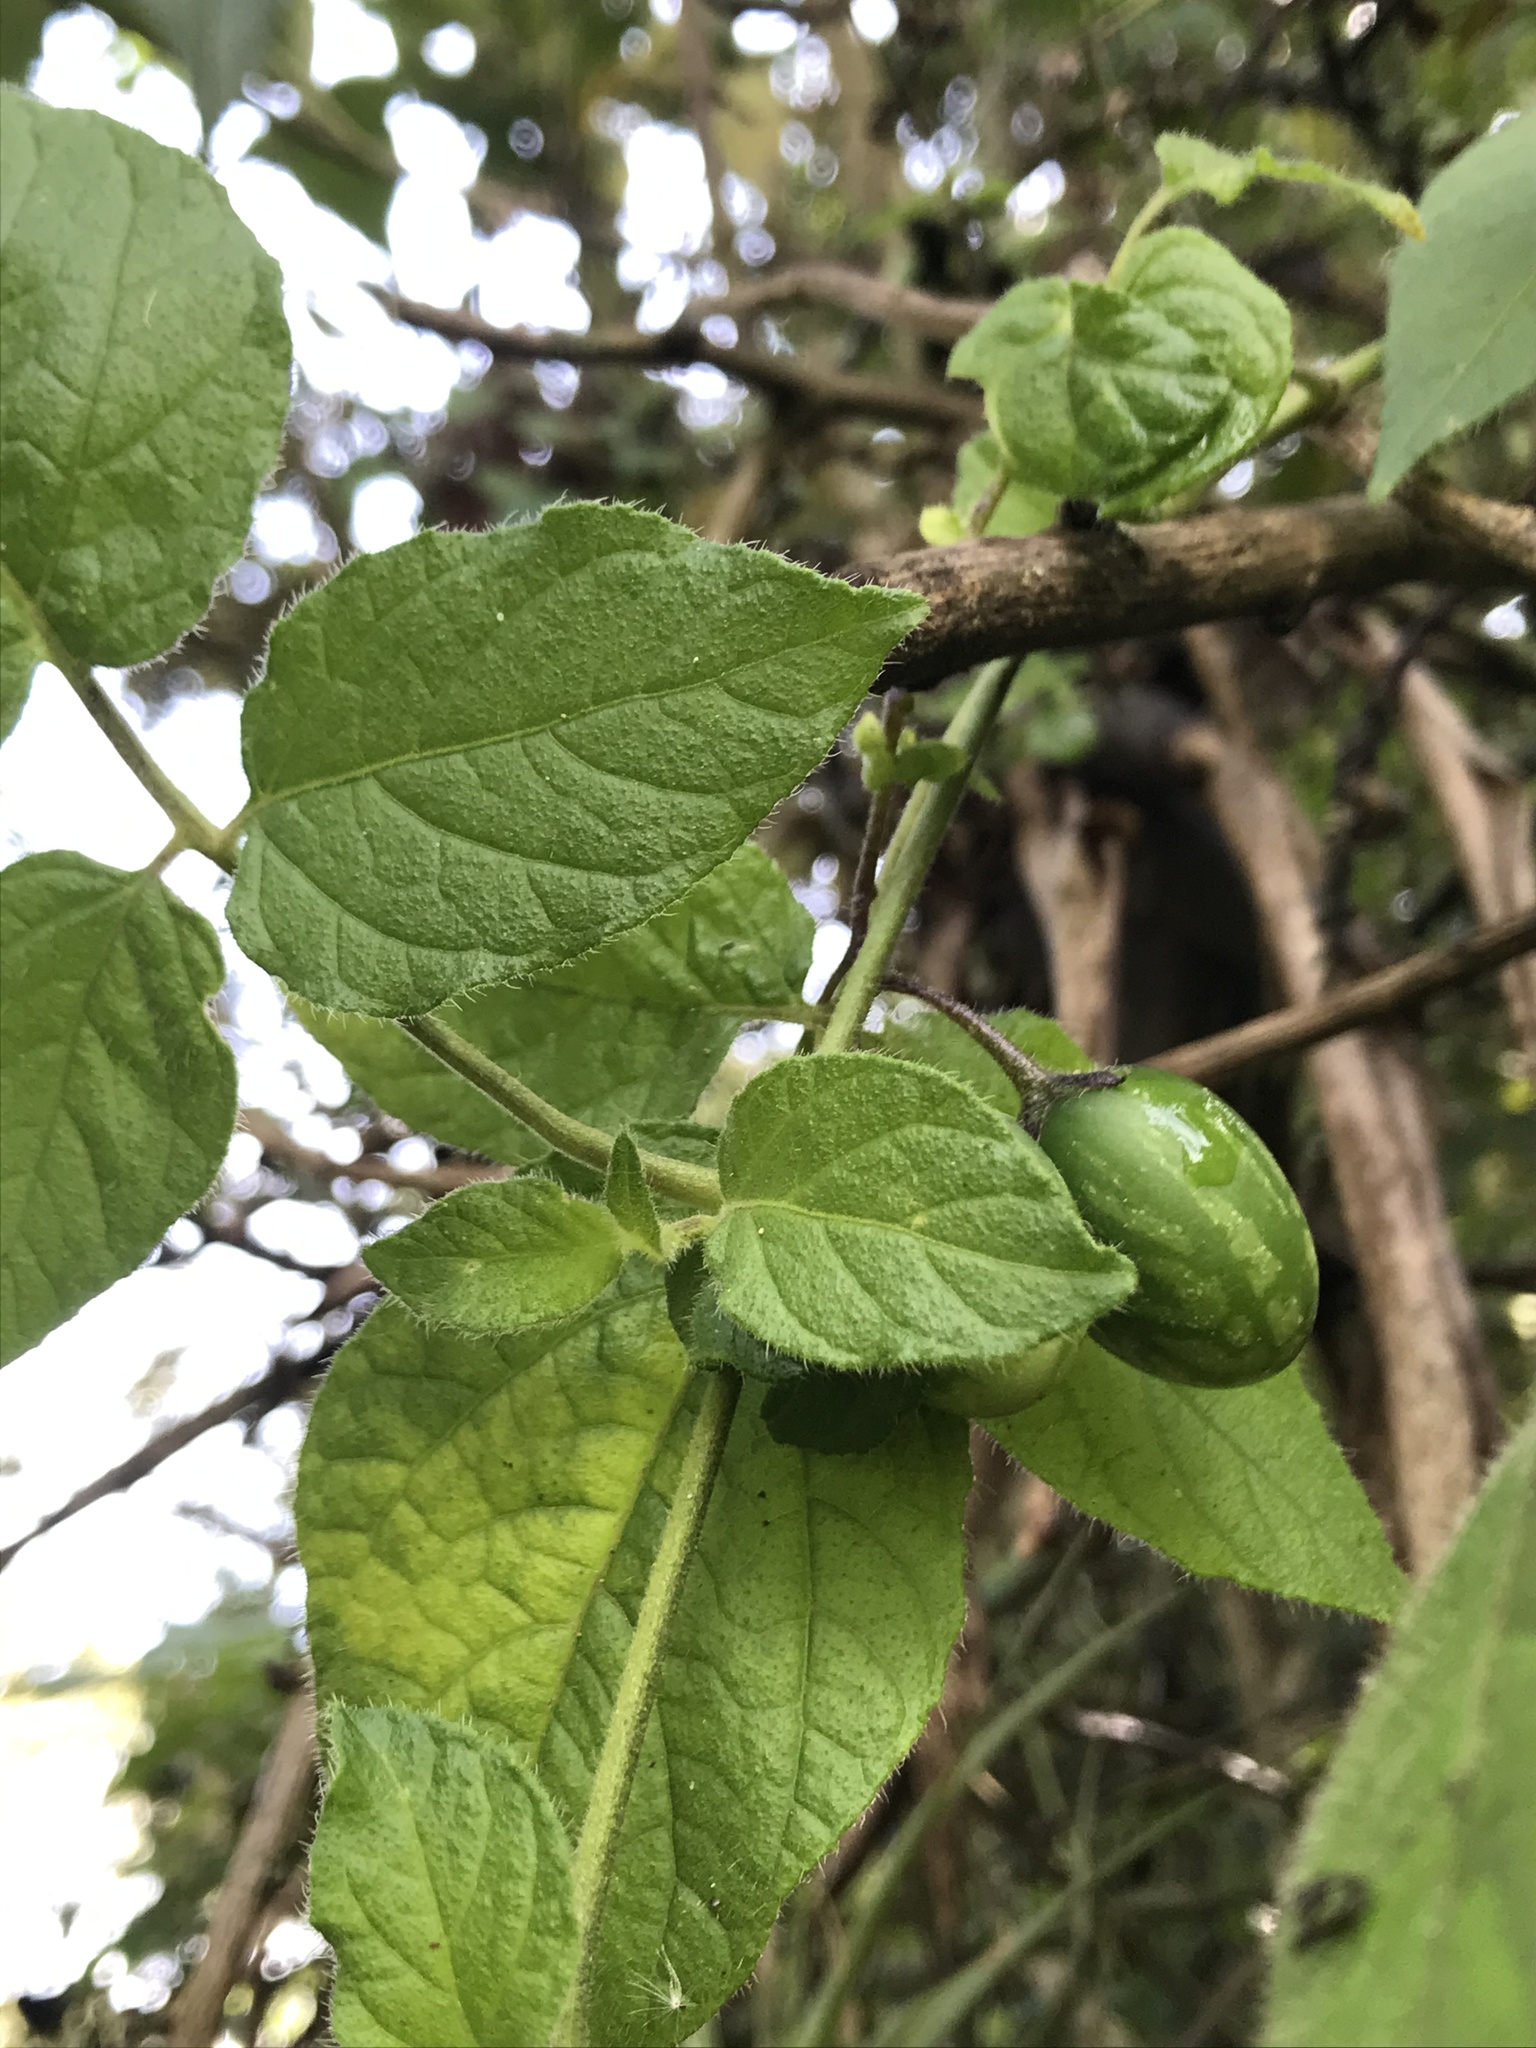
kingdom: Plantae
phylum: Tracheophyta
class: Magnoliopsida
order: Solanales
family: Solanaceae
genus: Solanum
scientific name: Solanum caripense
